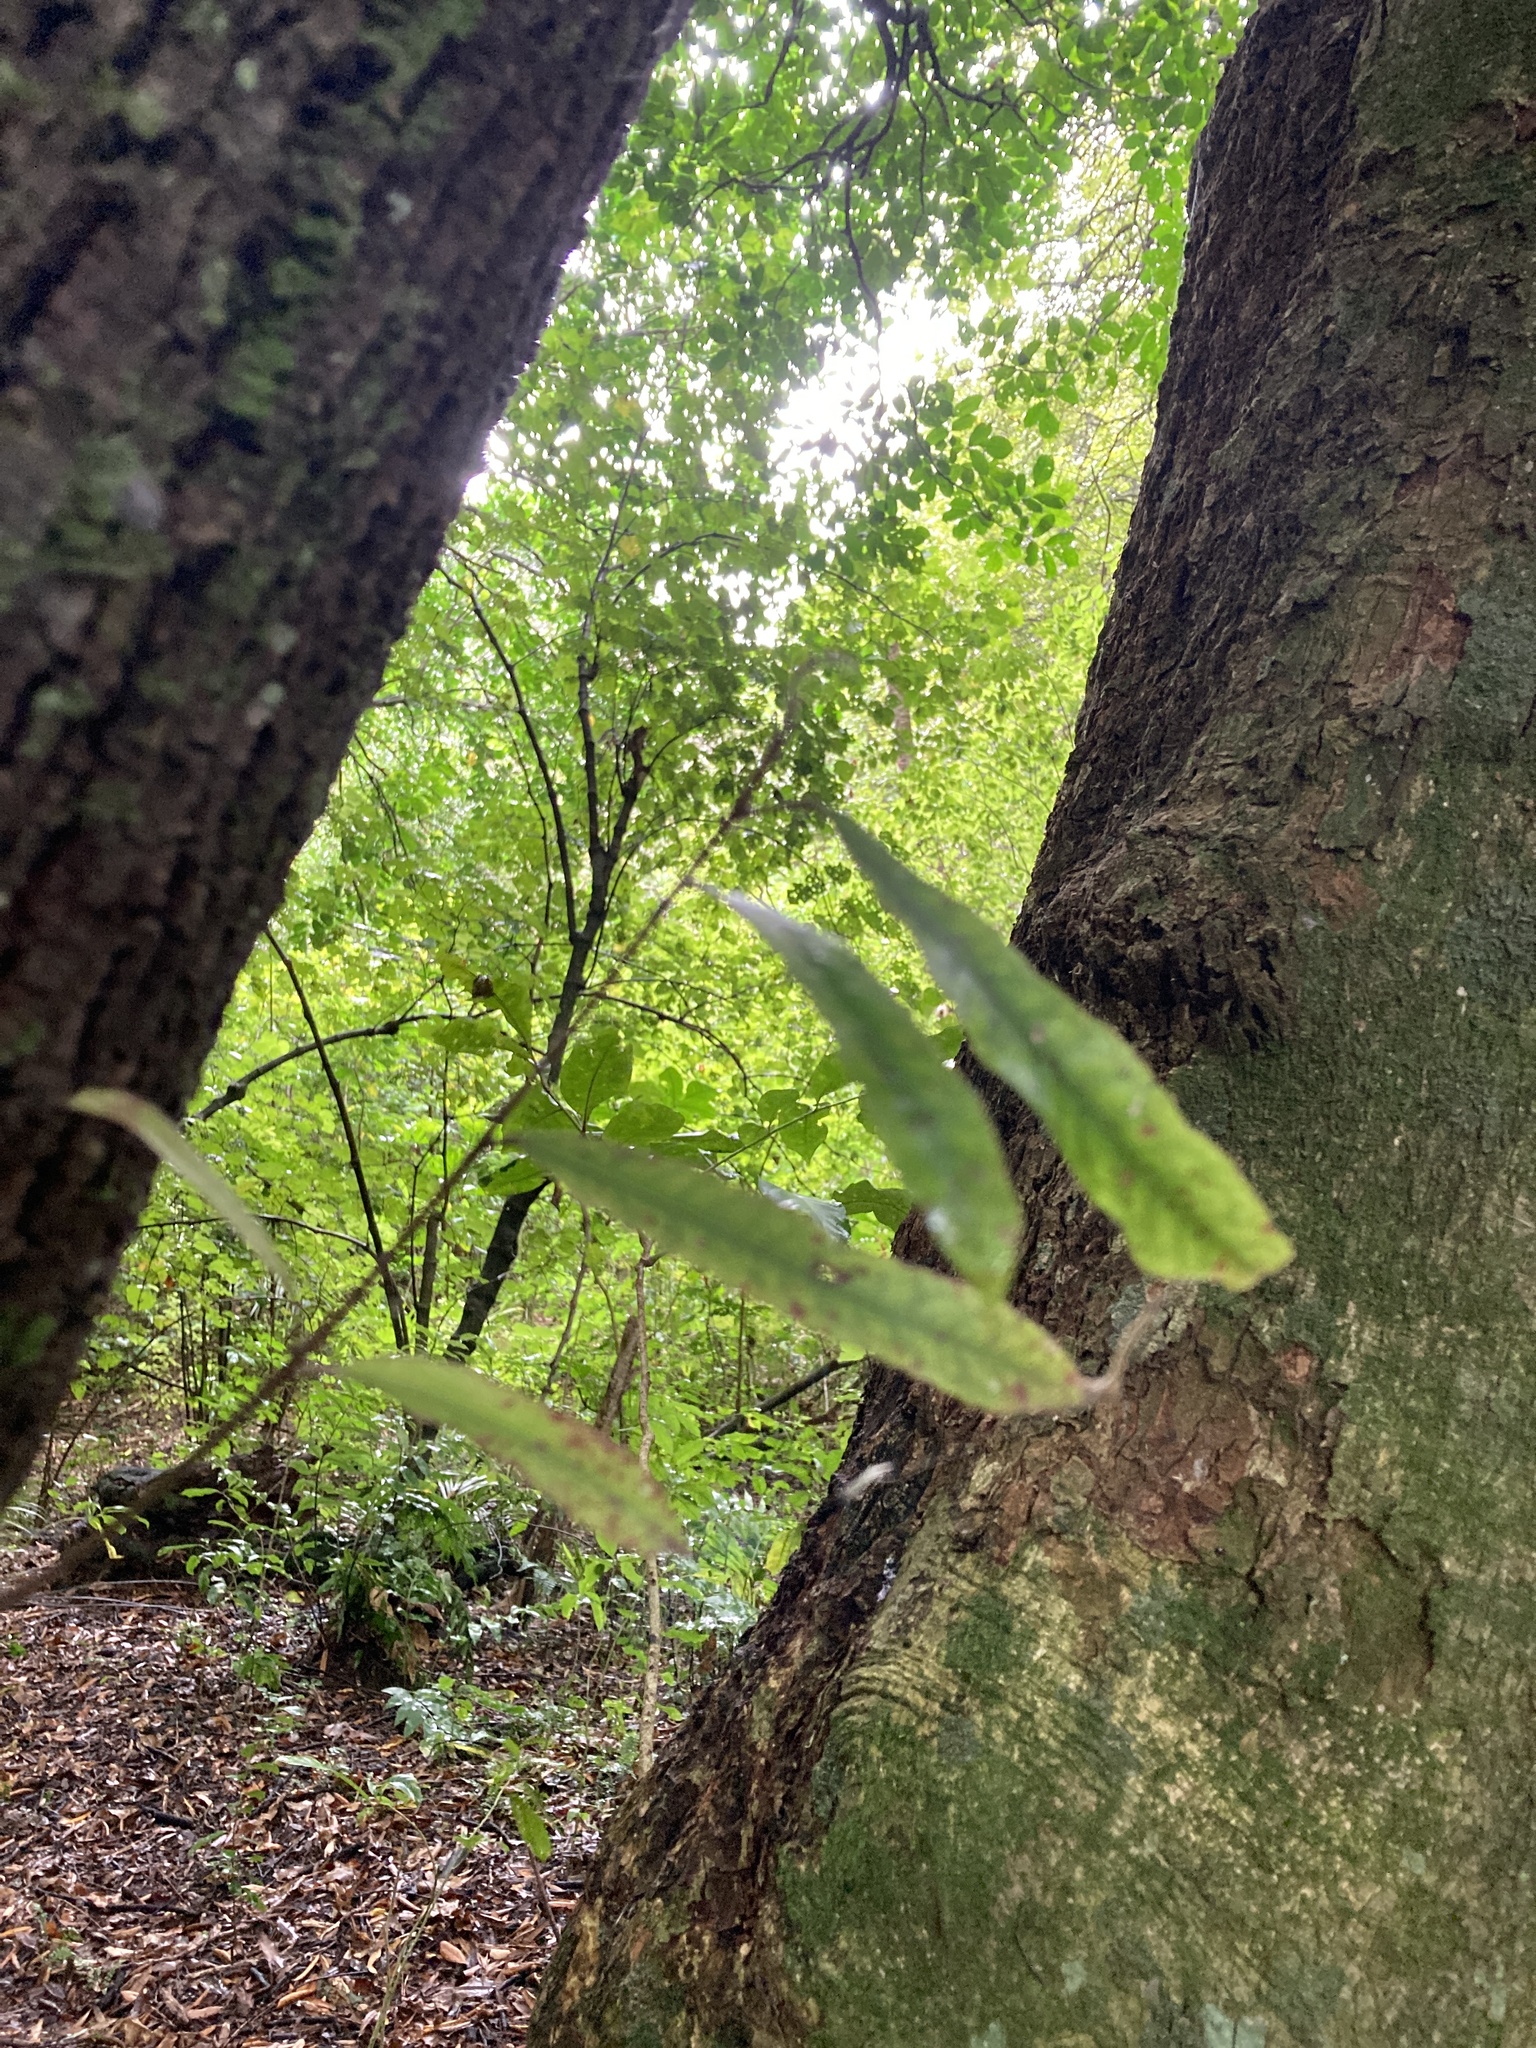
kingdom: Plantae
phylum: Tracheophyta
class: Magnoliopsida
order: Oxalidales
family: Elaeocarpaceae
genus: Elaeocarpus
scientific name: Elaeocarpus dentatus
